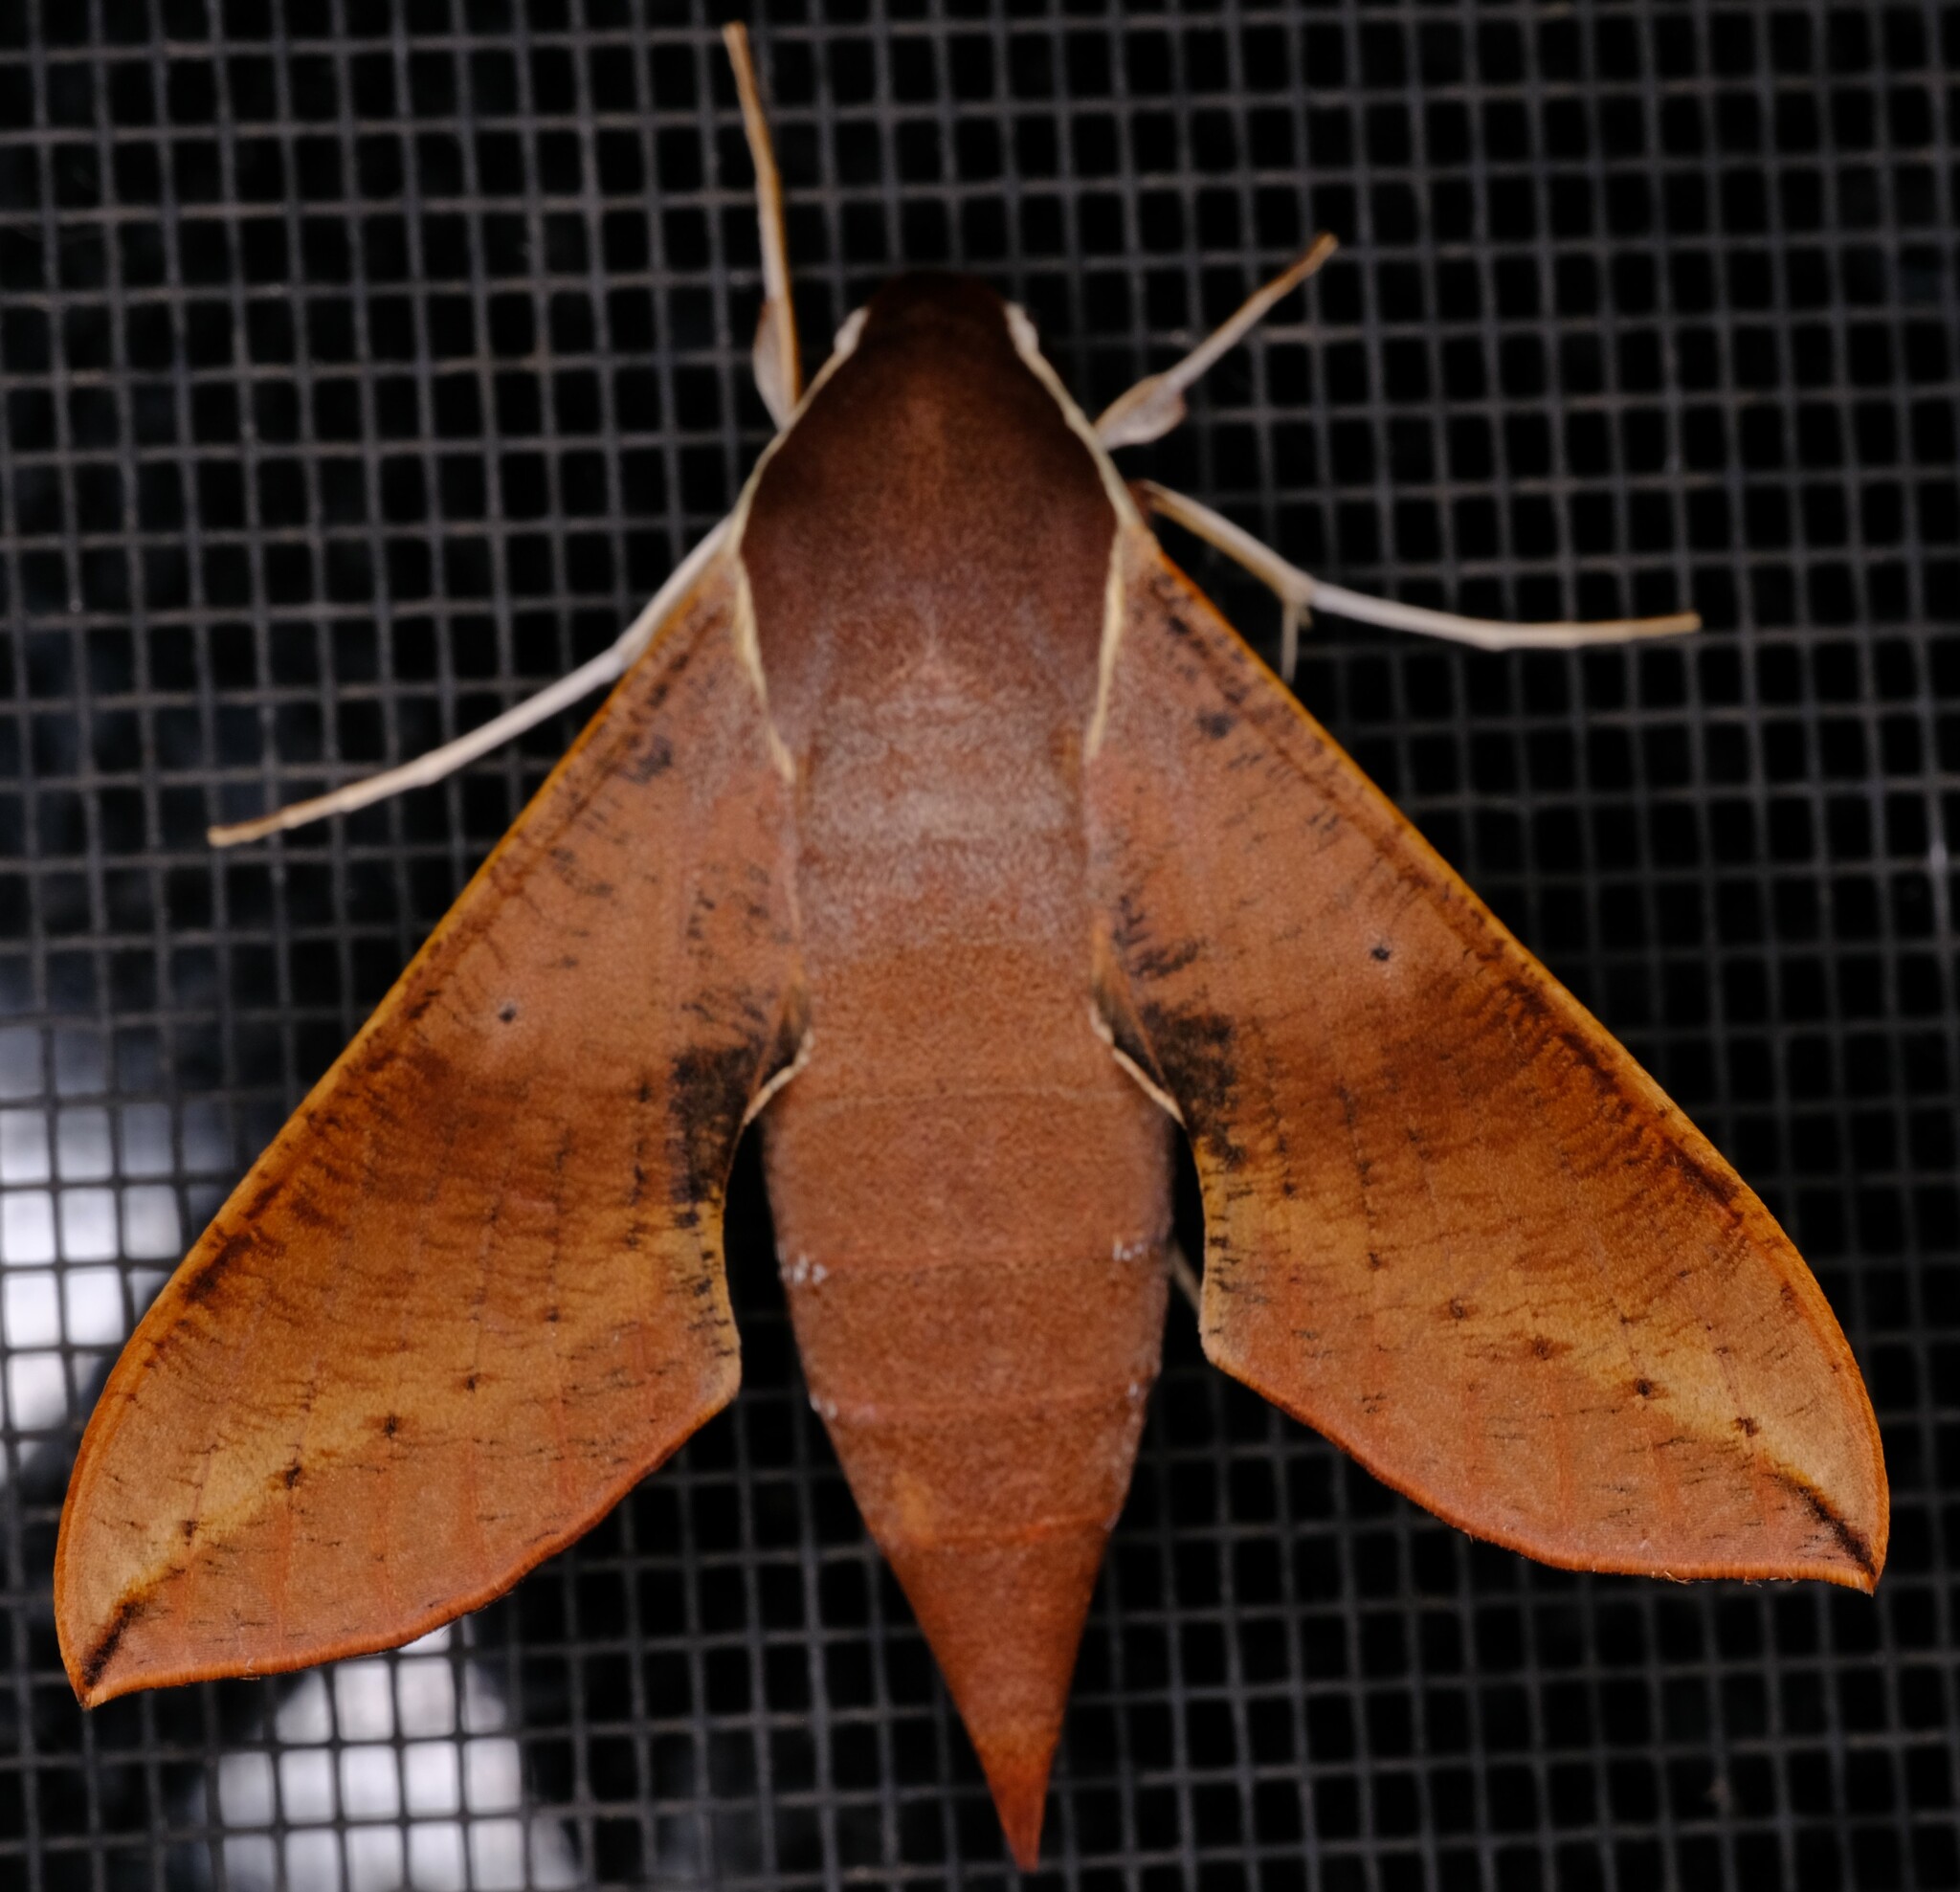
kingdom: Animalia
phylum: Arthropoda
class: Insecta
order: Lepidoptera
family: Sphingidae
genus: Hippotion
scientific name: Hippotion scrofa
